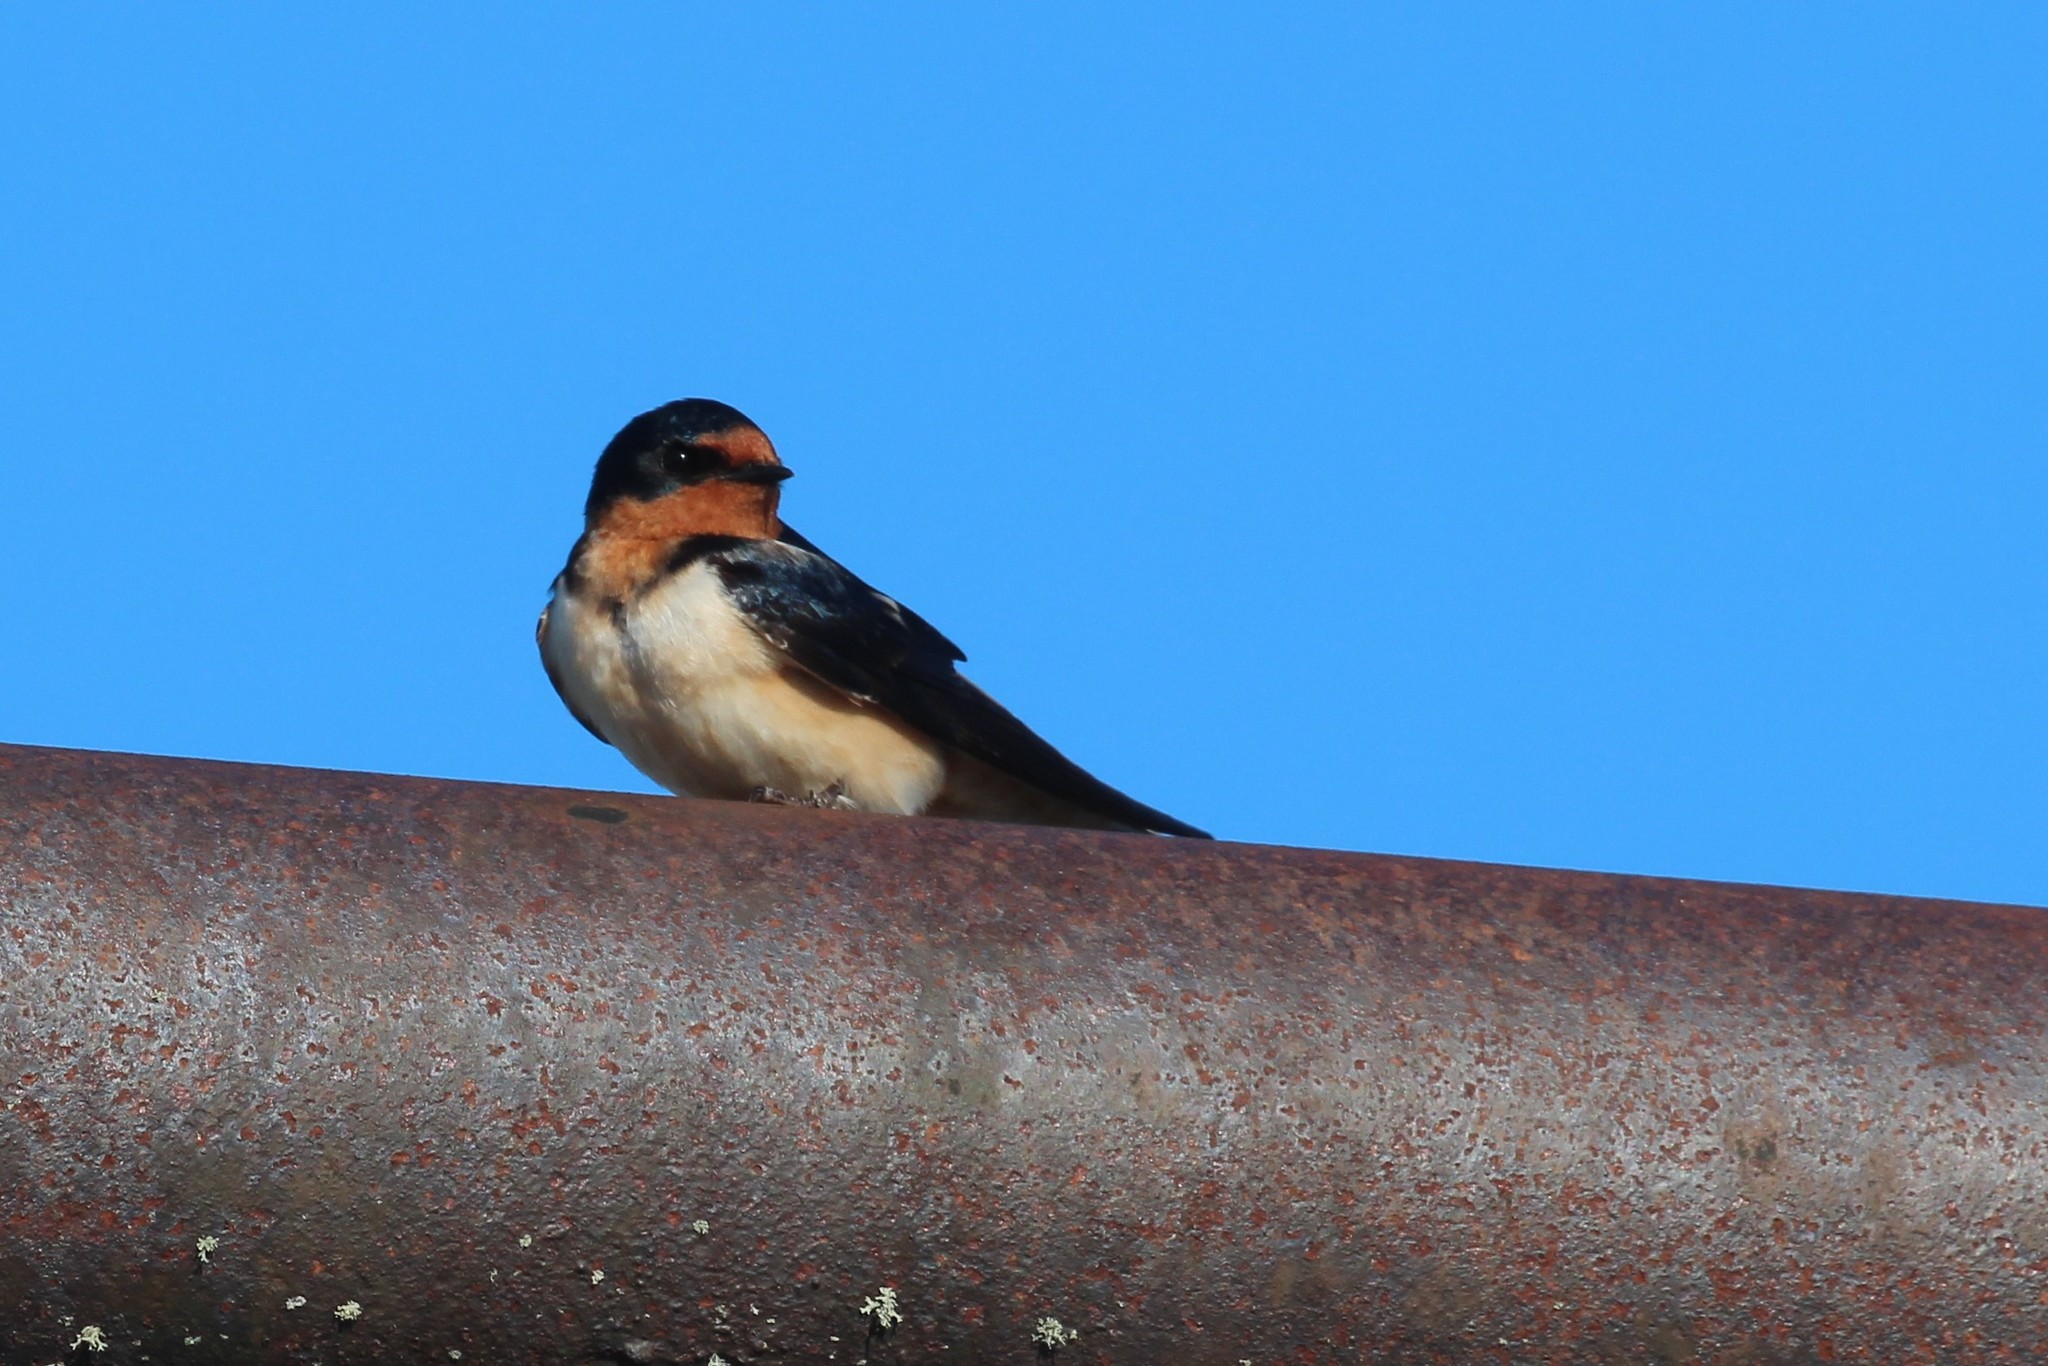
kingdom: Animalia
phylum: Chordata
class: Aves
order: Passeriformes
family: Hirundinidae
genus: Hirundo
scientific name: Hirundo rustica
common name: Barn swallow
